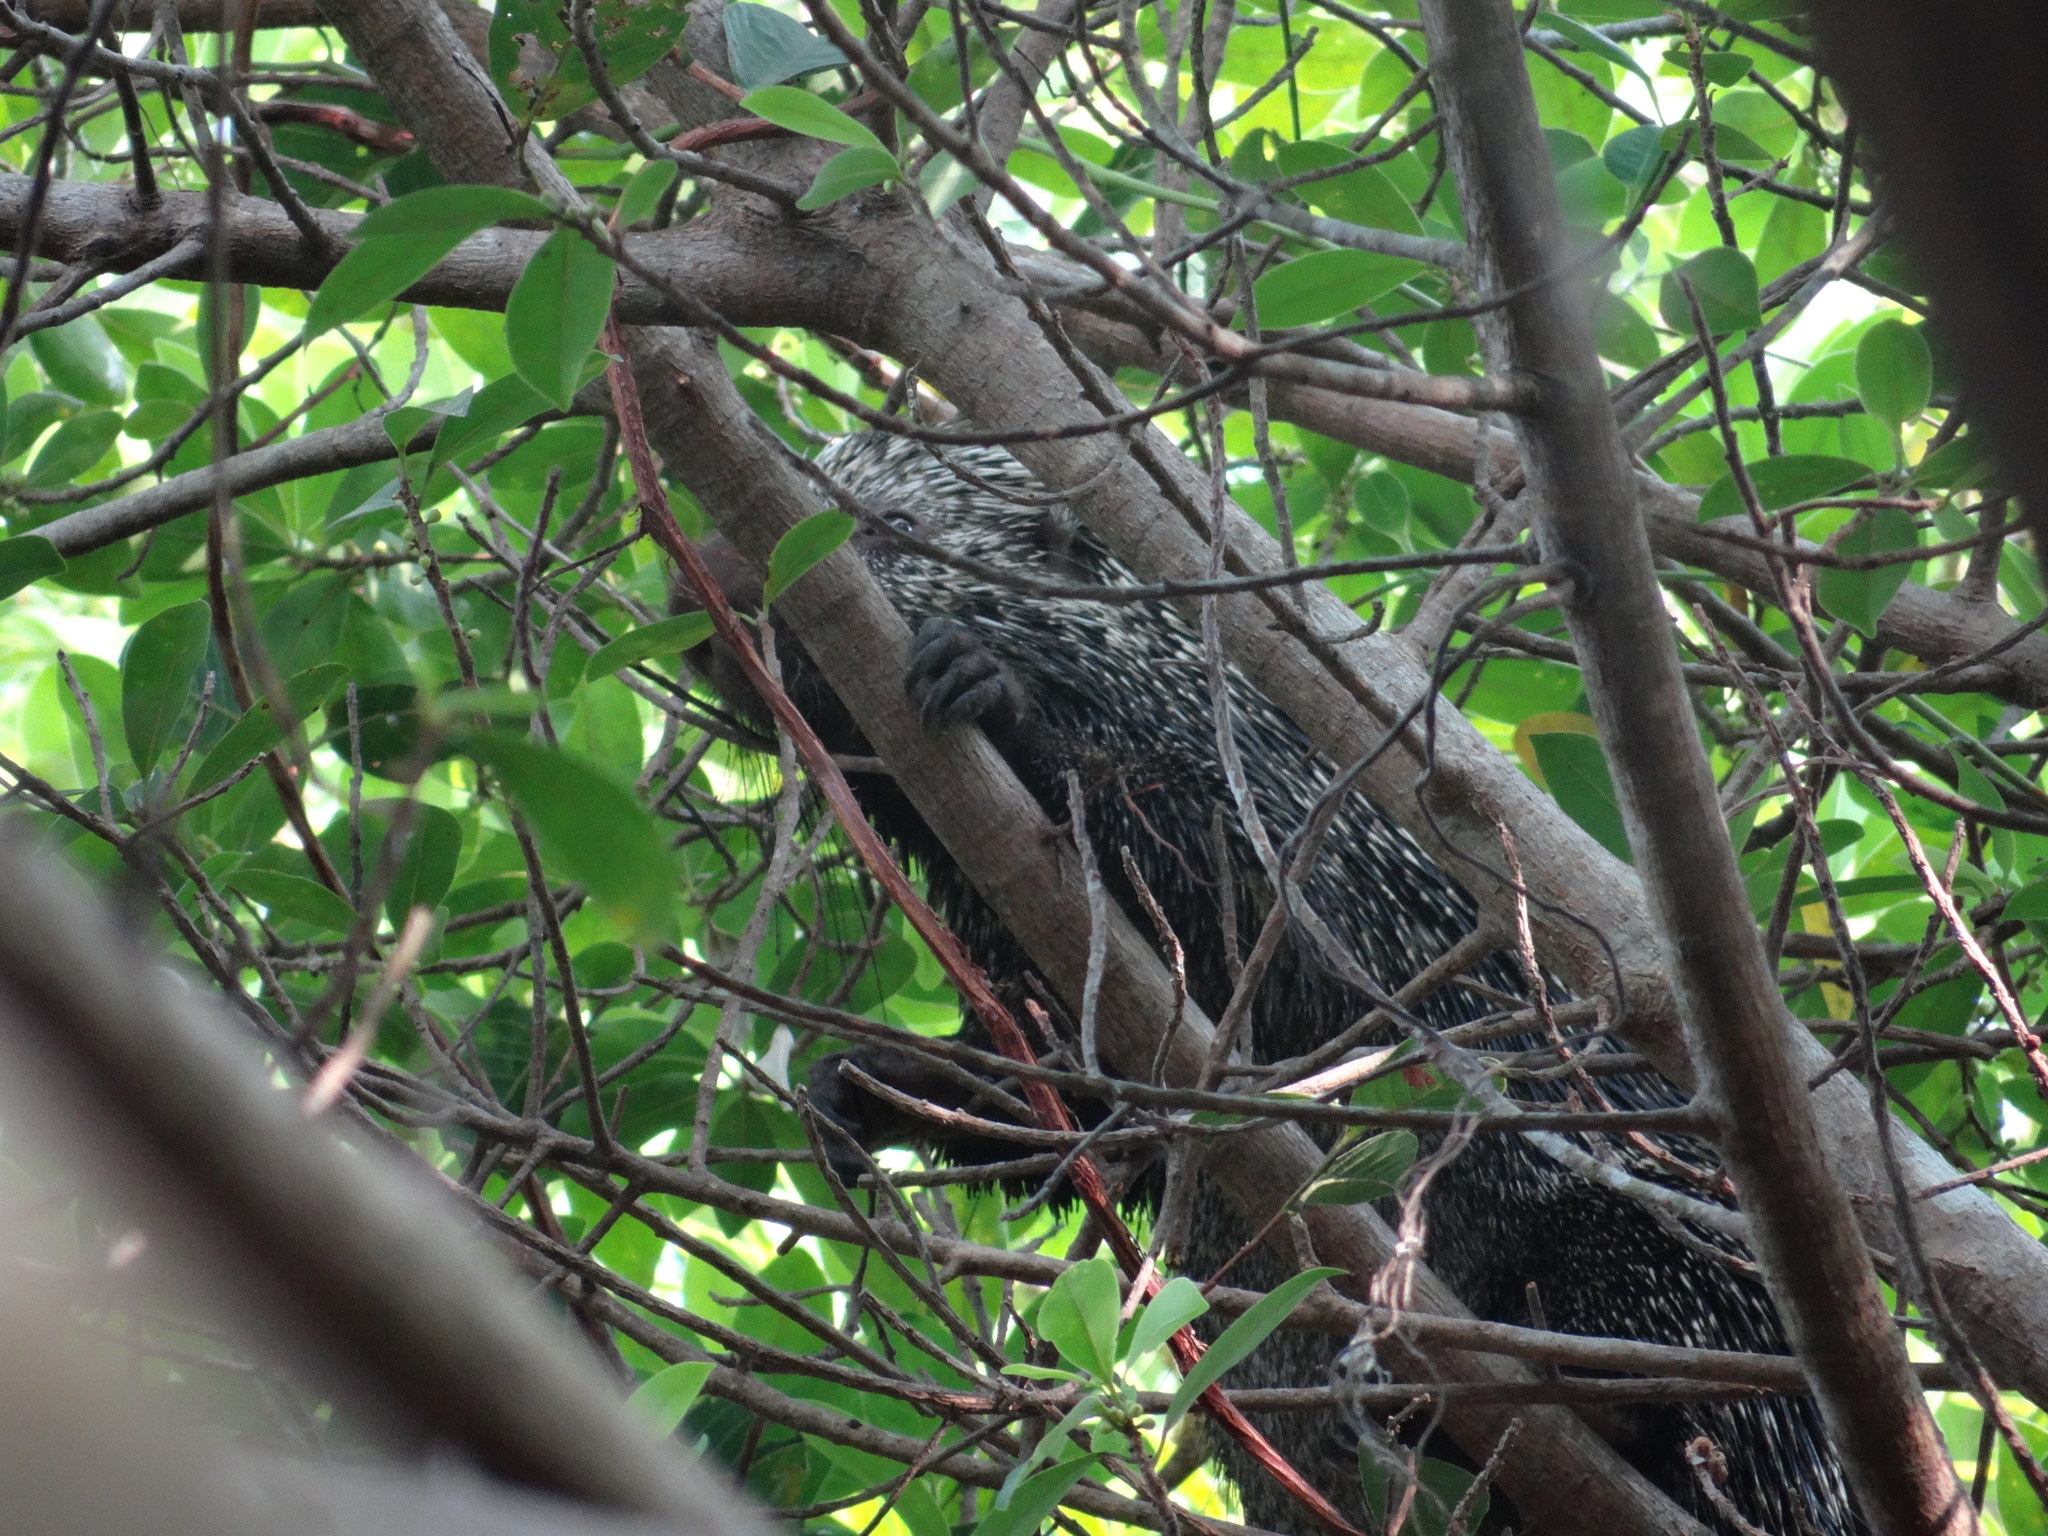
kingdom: Animalia
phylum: Chordata
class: Mammalia
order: Rodentia
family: Erethizontidae
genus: Coendou
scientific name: Coendou longicaudatus
